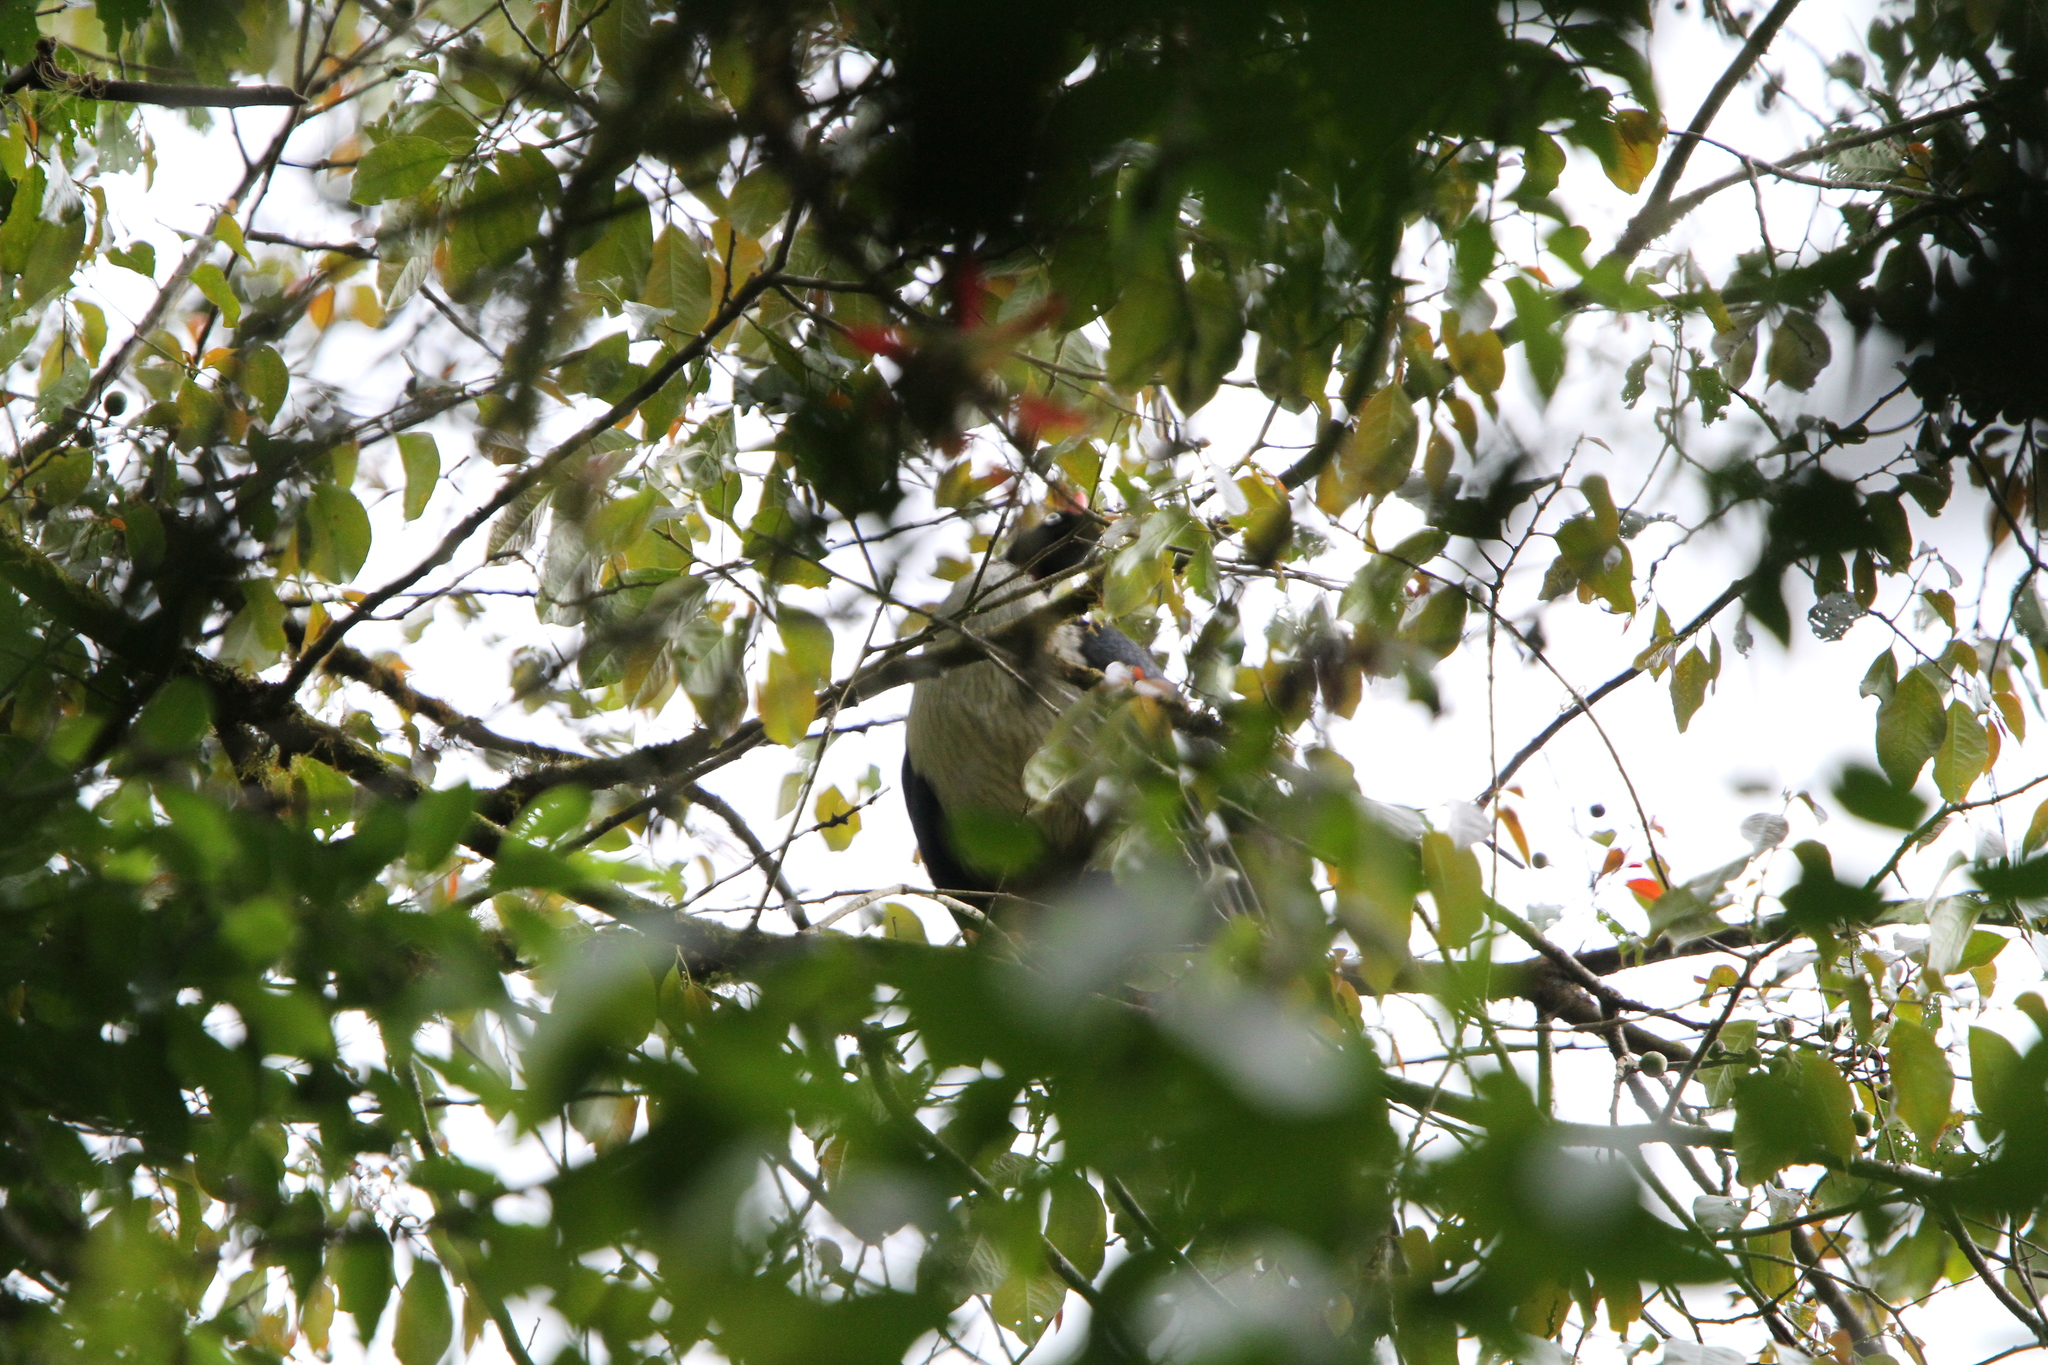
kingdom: Animalia
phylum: Chordata
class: Aves
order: Galliformes
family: Cracidae
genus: Oreophasis
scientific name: Oreophasis derbianus
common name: Horned guan
